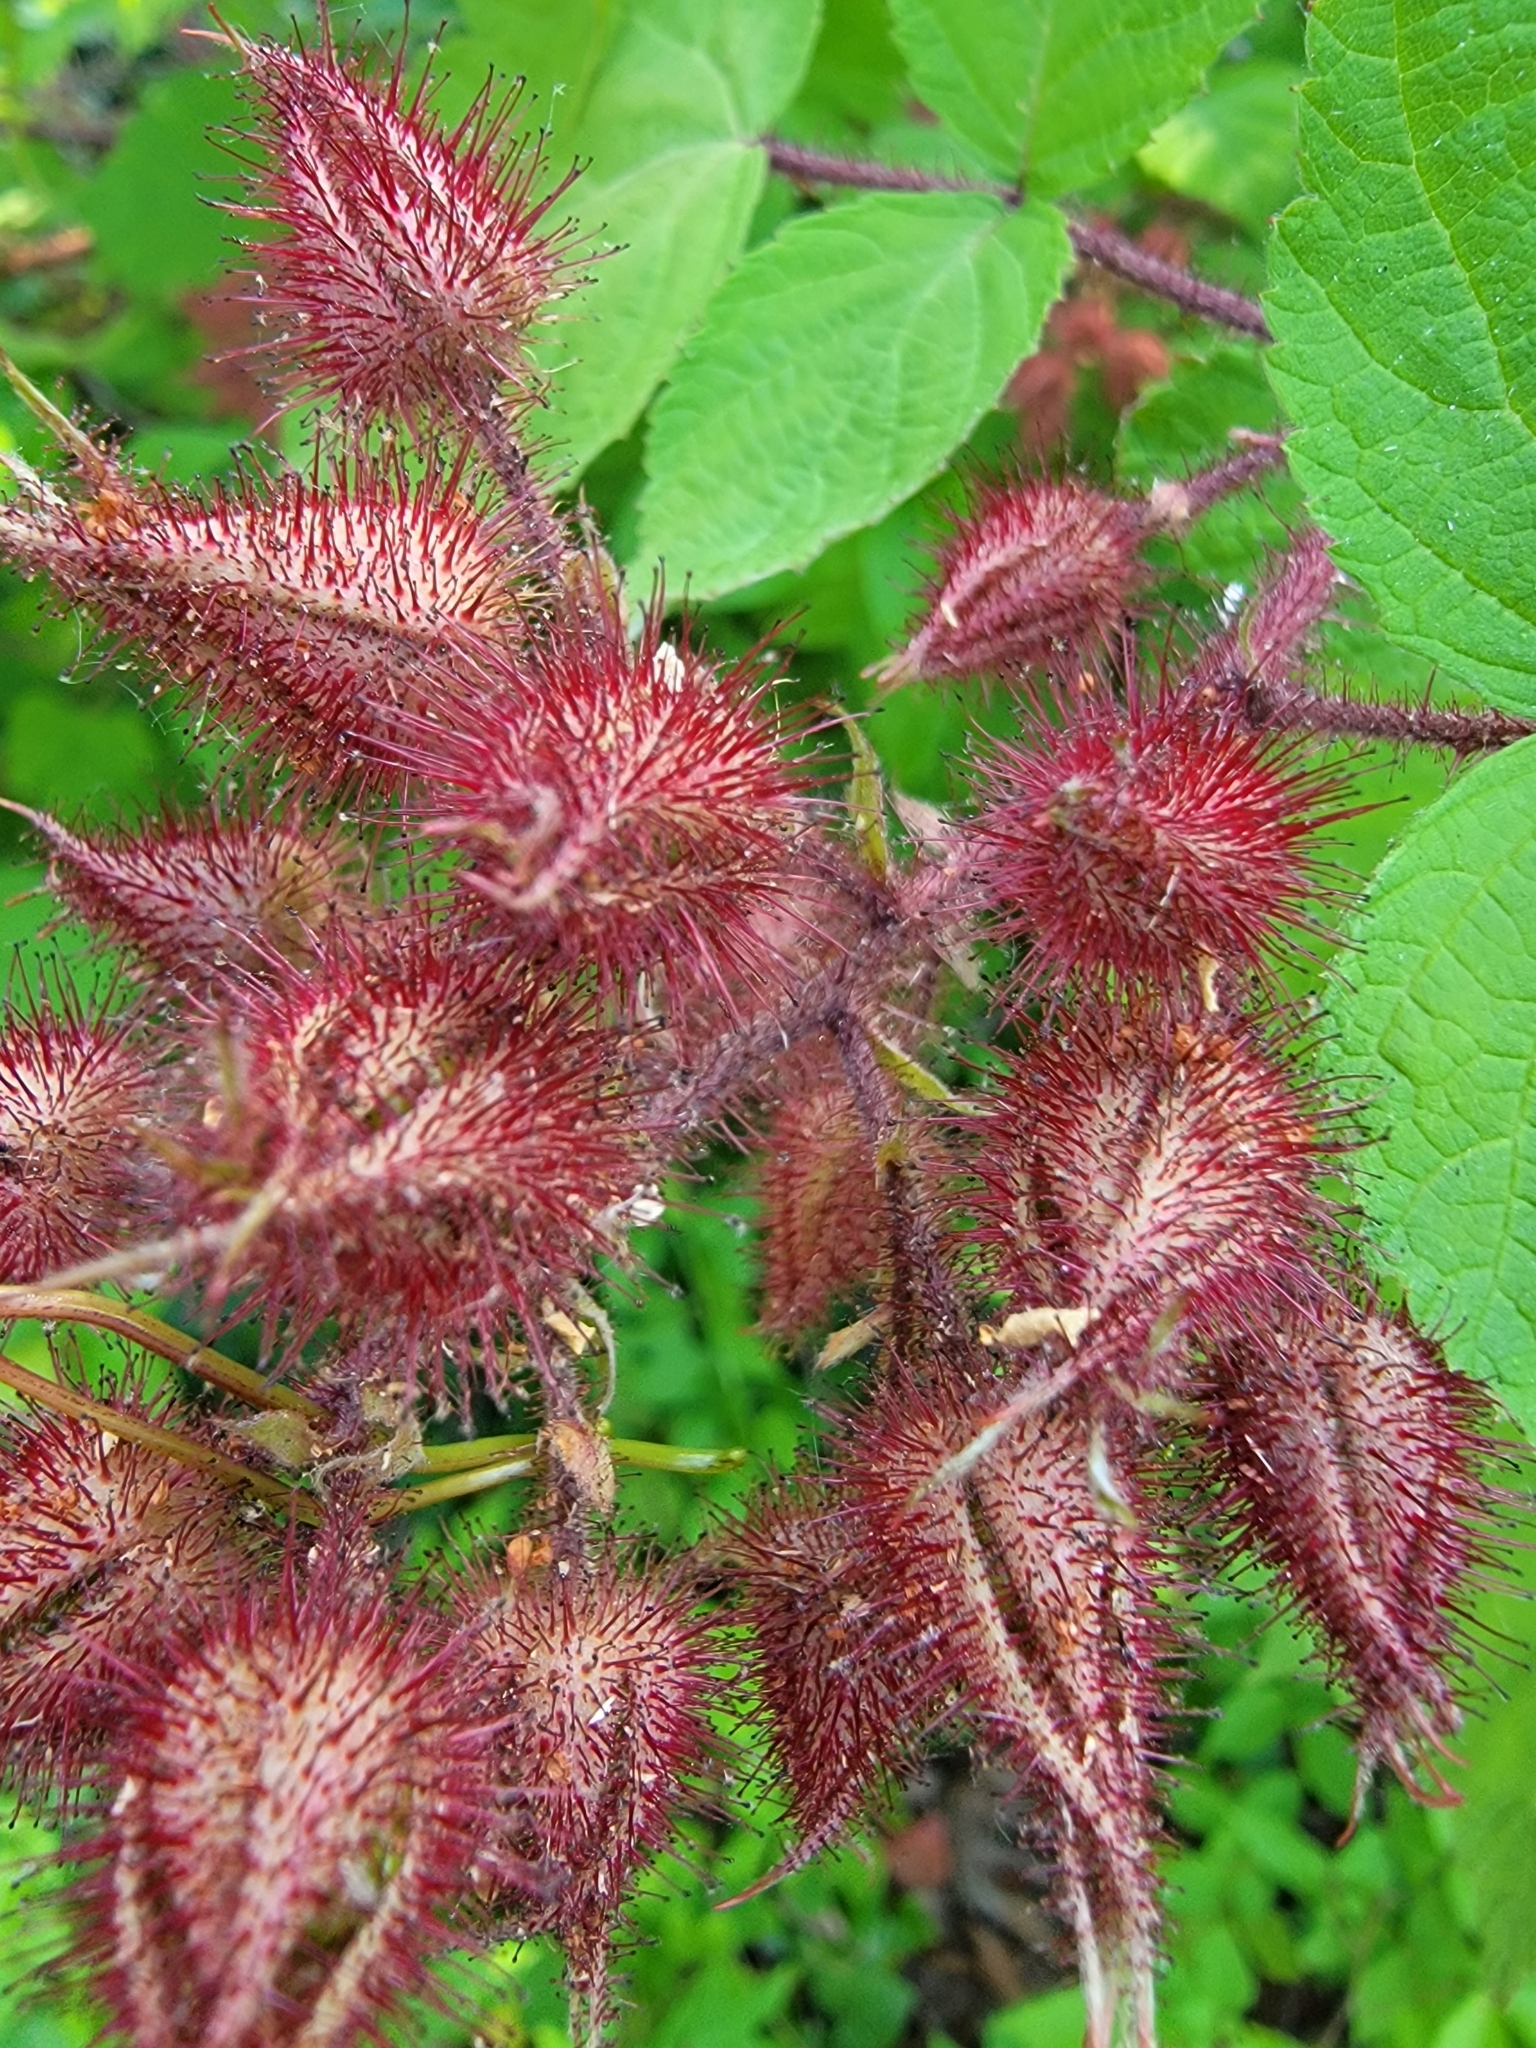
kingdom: Plantae
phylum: Tracheophyta
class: Magnoliopsida
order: Rosales
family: Rosaceae
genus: Rubus
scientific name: Rubus phoenicolasius
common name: Japanese wineberry
